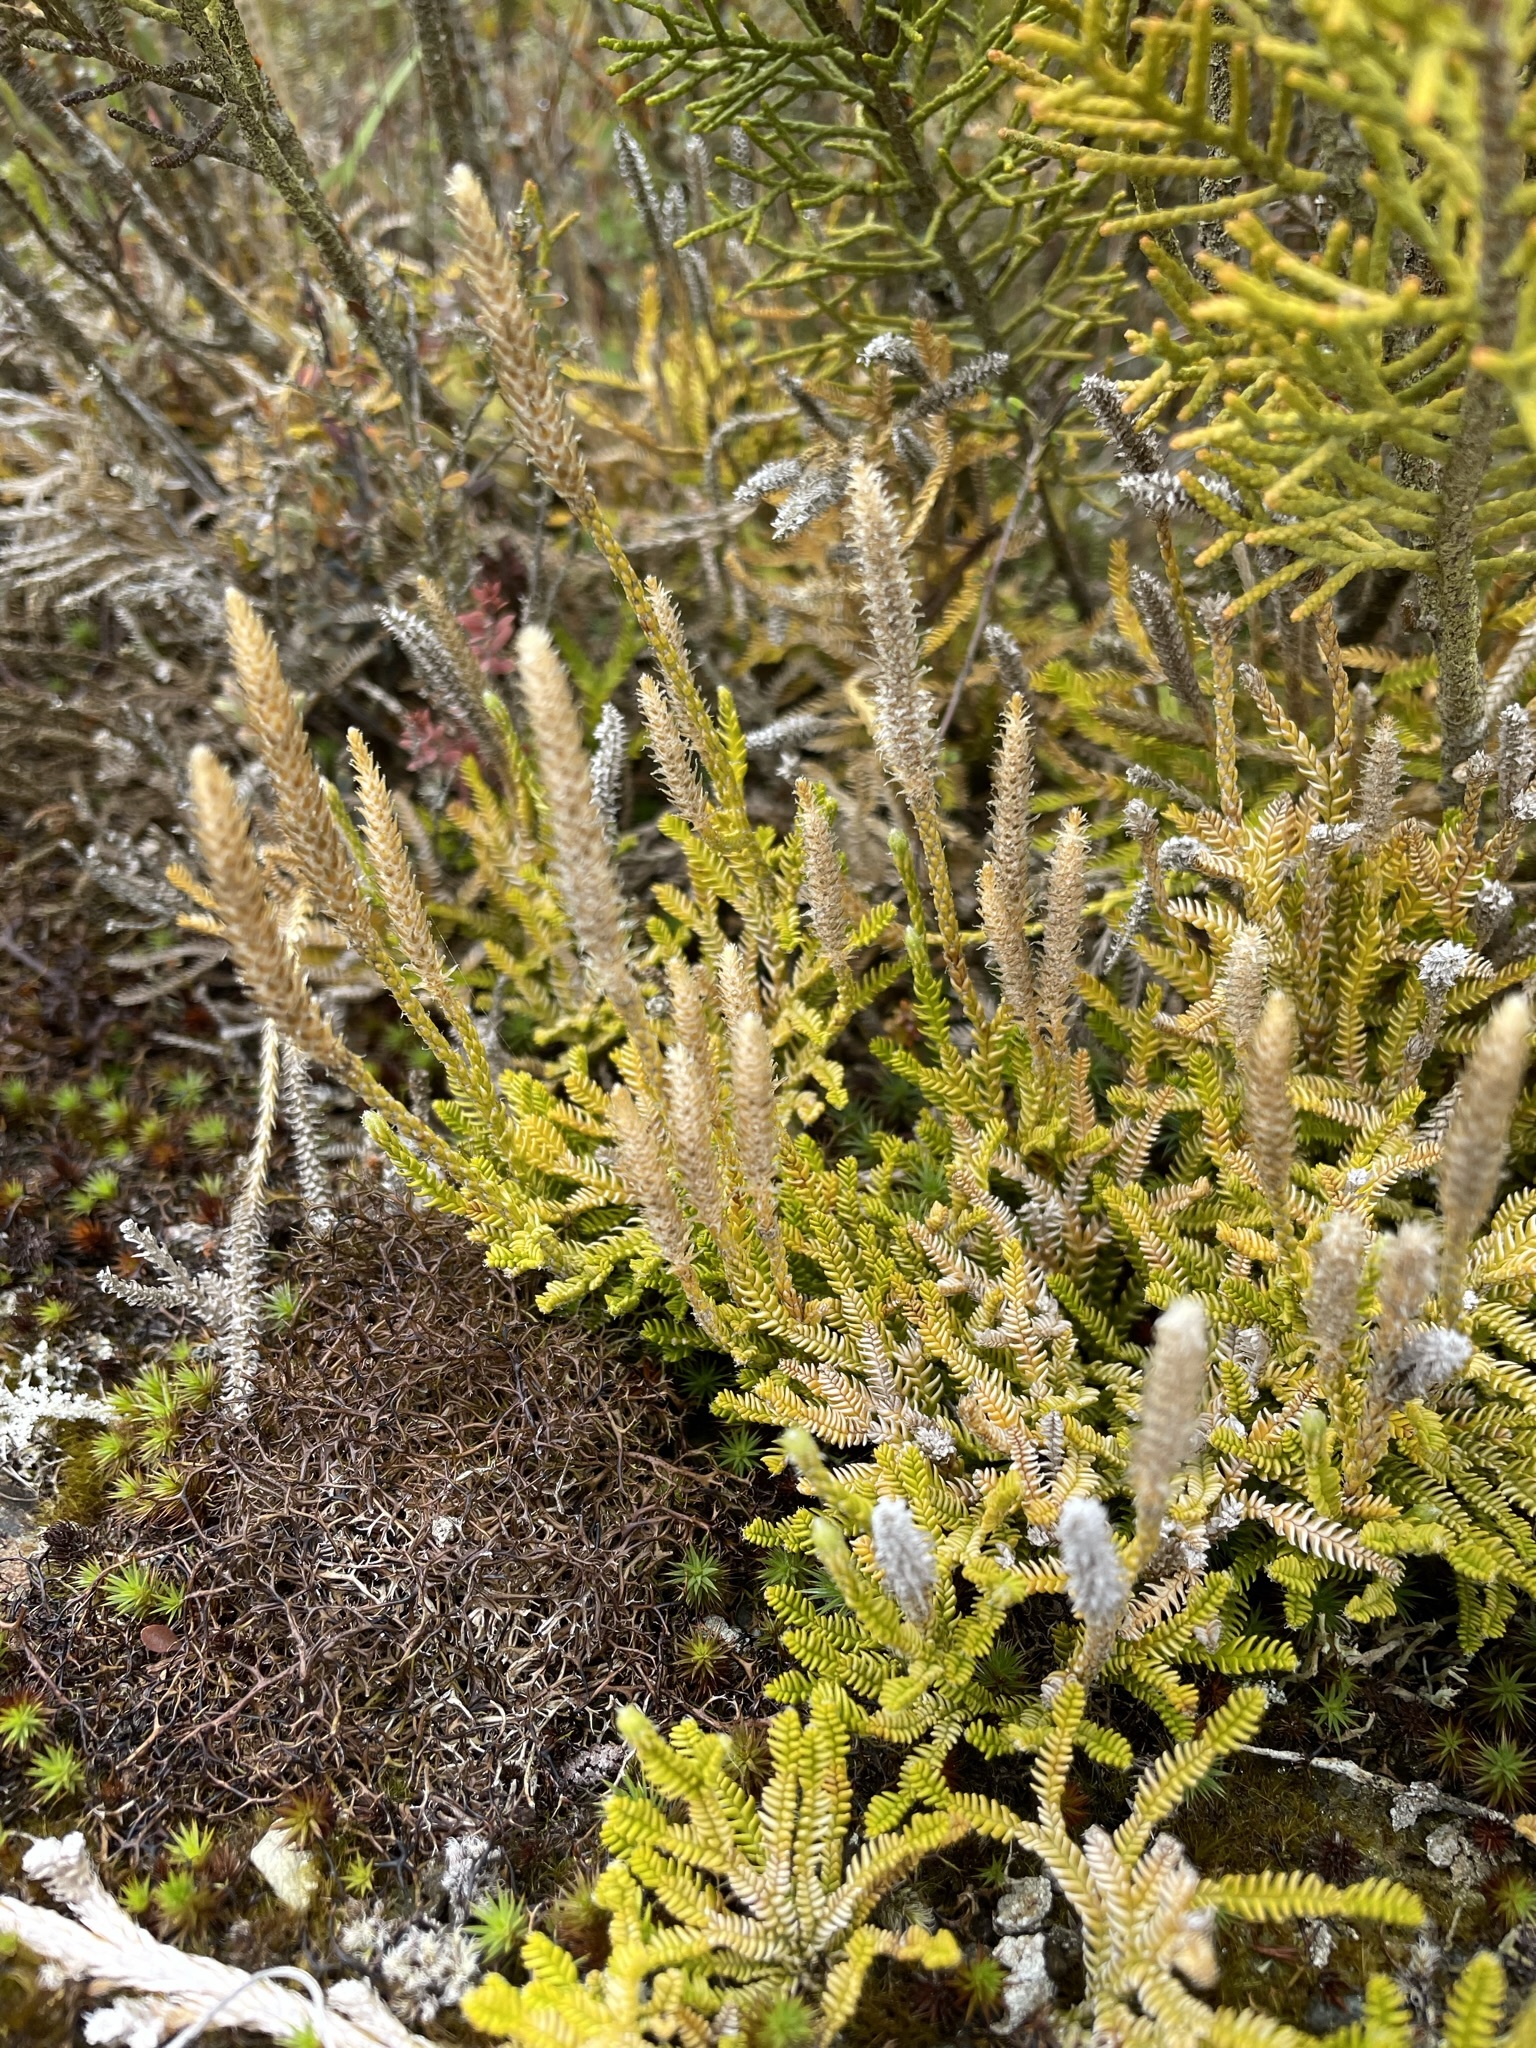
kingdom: Plantae
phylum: Tracheophyta
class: Lycopodiopsida
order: Lycopodiales
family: Lycopodiaceae
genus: Diphasium
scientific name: Diphasium scariosum
